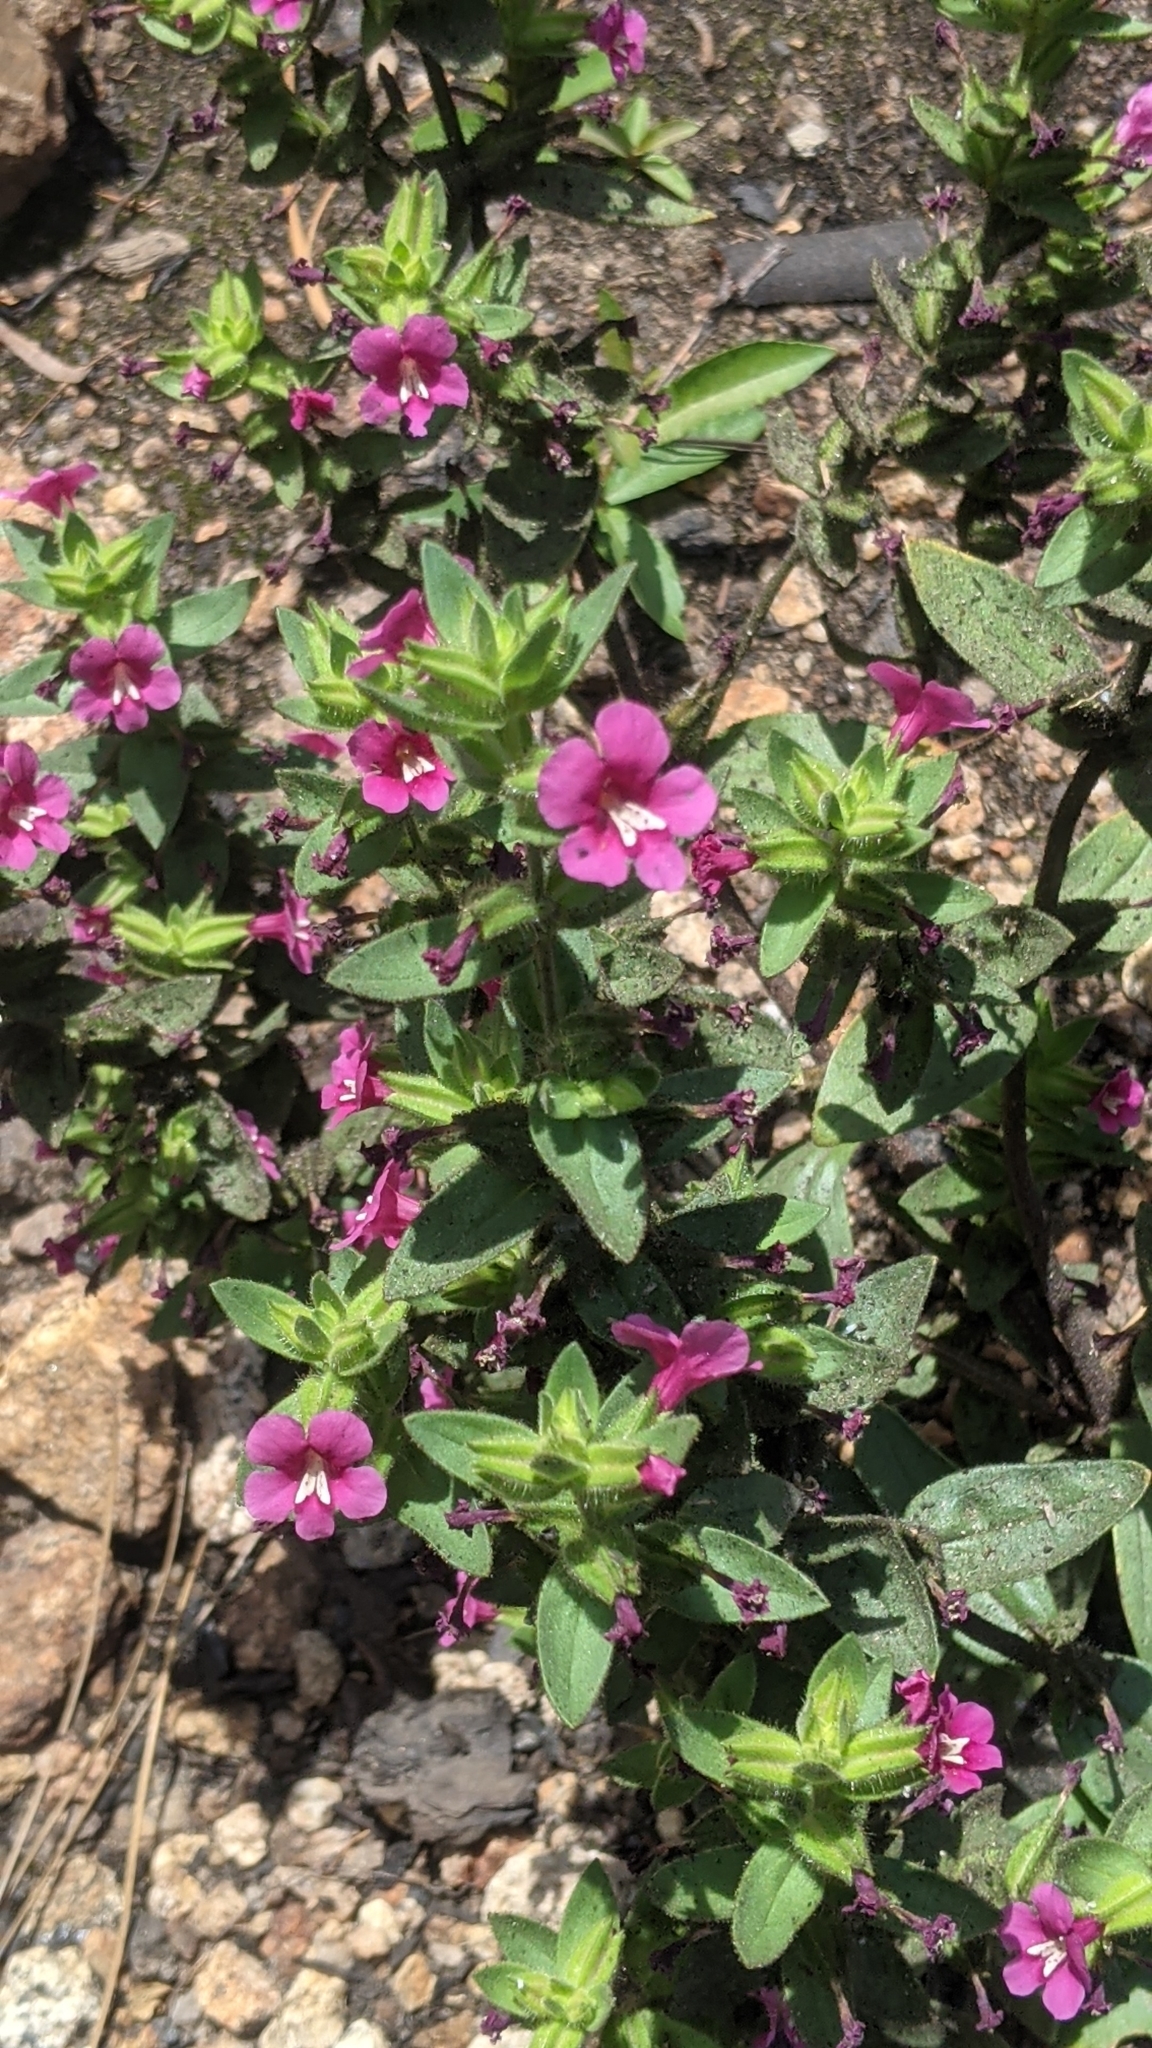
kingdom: Plantae
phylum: Tracheophyta
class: Magnoliopsida
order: Lamiales
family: Phrymaceae
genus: Diplacus
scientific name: Diplacus bolanderi
